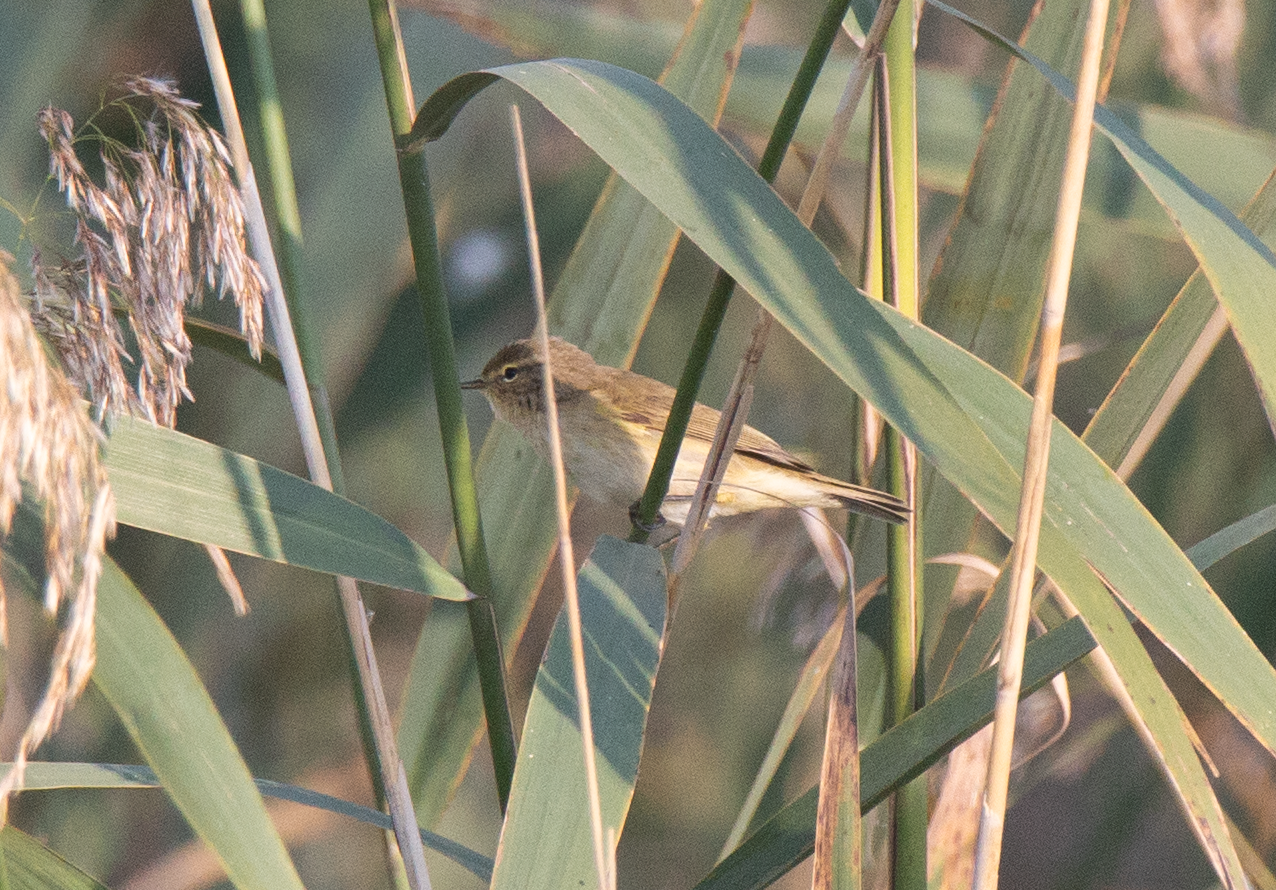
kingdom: Animalia
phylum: Chordata
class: Aves
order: Passeriformes
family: Phylloscopidae
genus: Phylloscopus
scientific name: Phylloscopus collybita
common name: Common chiffchaff
